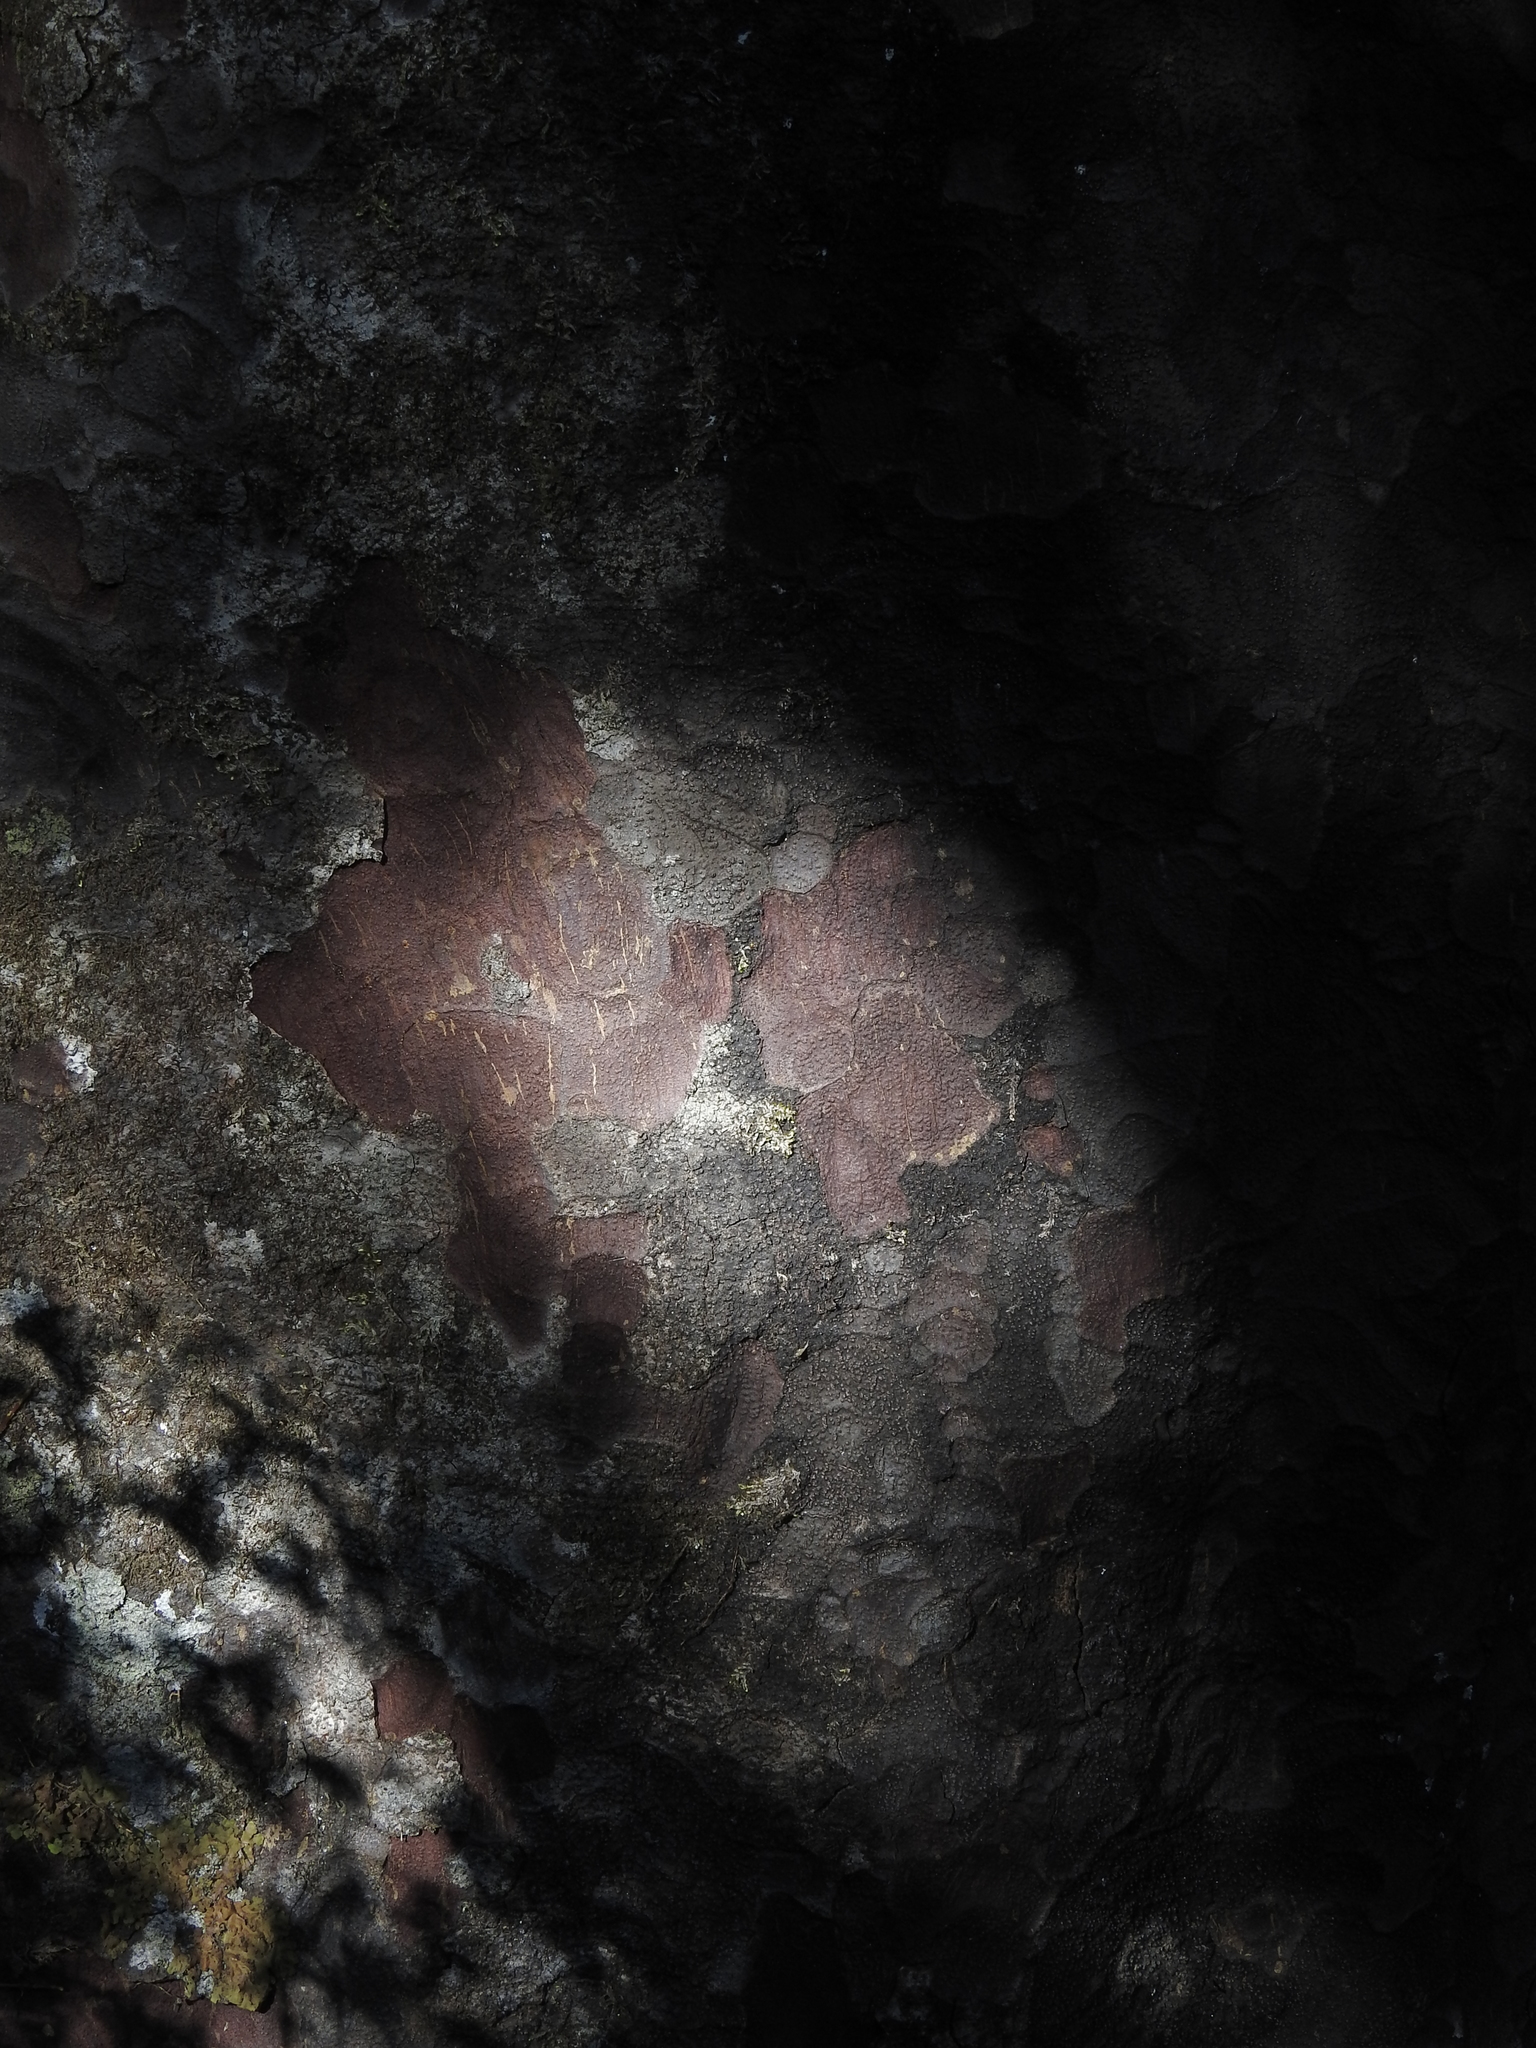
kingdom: Plantae
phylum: Tracheophyta
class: Pinopsida
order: Pinales
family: Podocarpaceae
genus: Prumnopitys
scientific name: Prumnopitys ferruginea
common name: Brown pine
